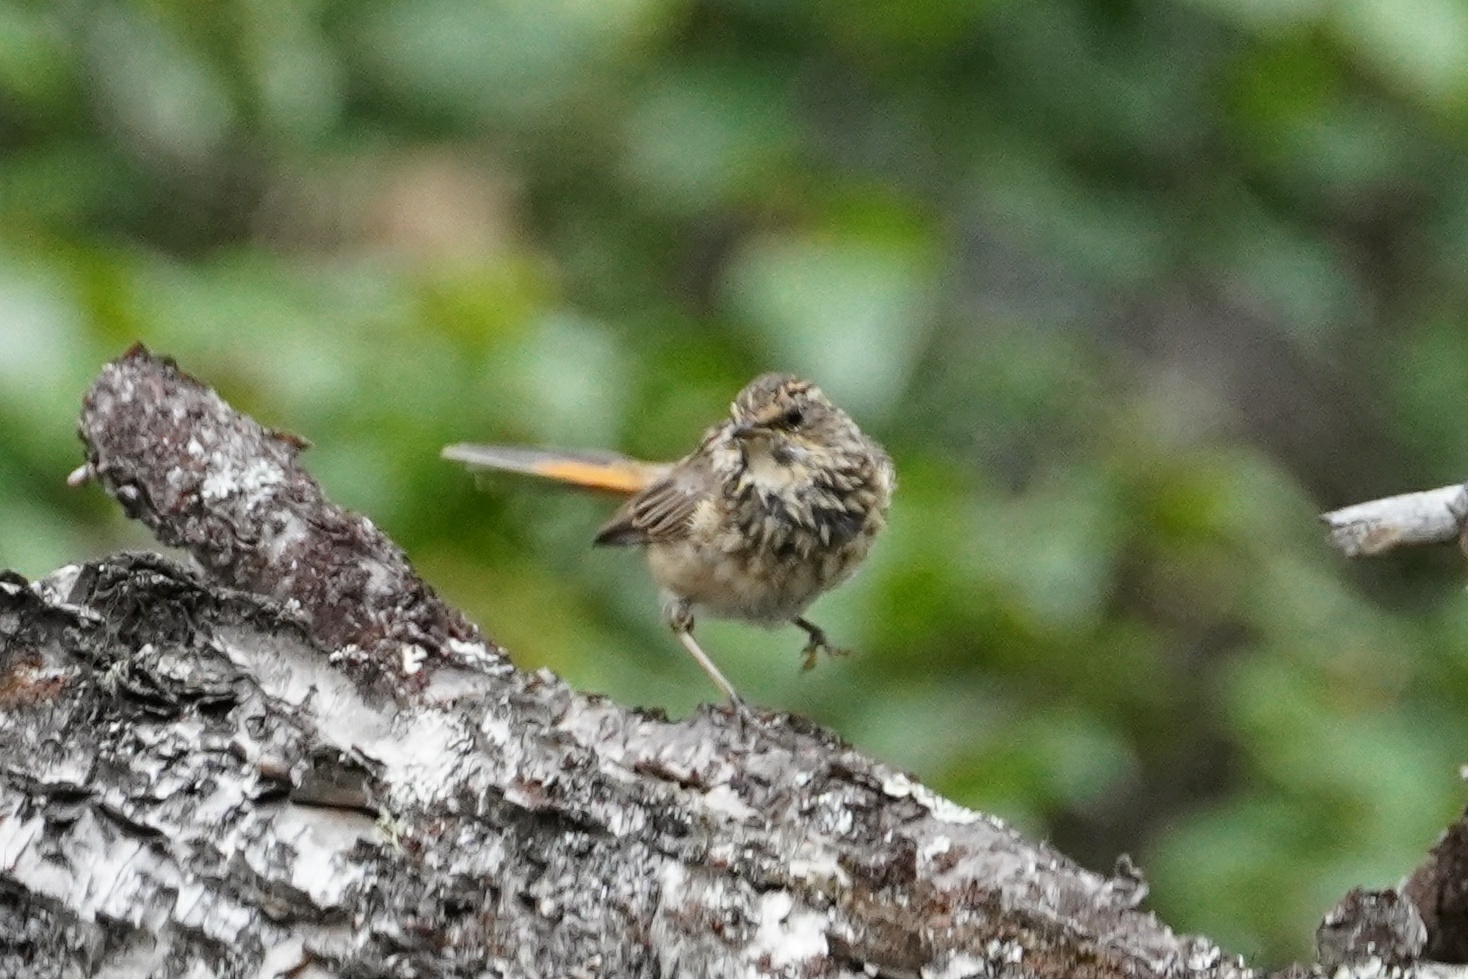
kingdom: Animalia
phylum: Chordata
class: Aves
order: Passeriformes
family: Muscicapidae
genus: Luscinia
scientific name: Luscinia svecica
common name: Bluethroat
